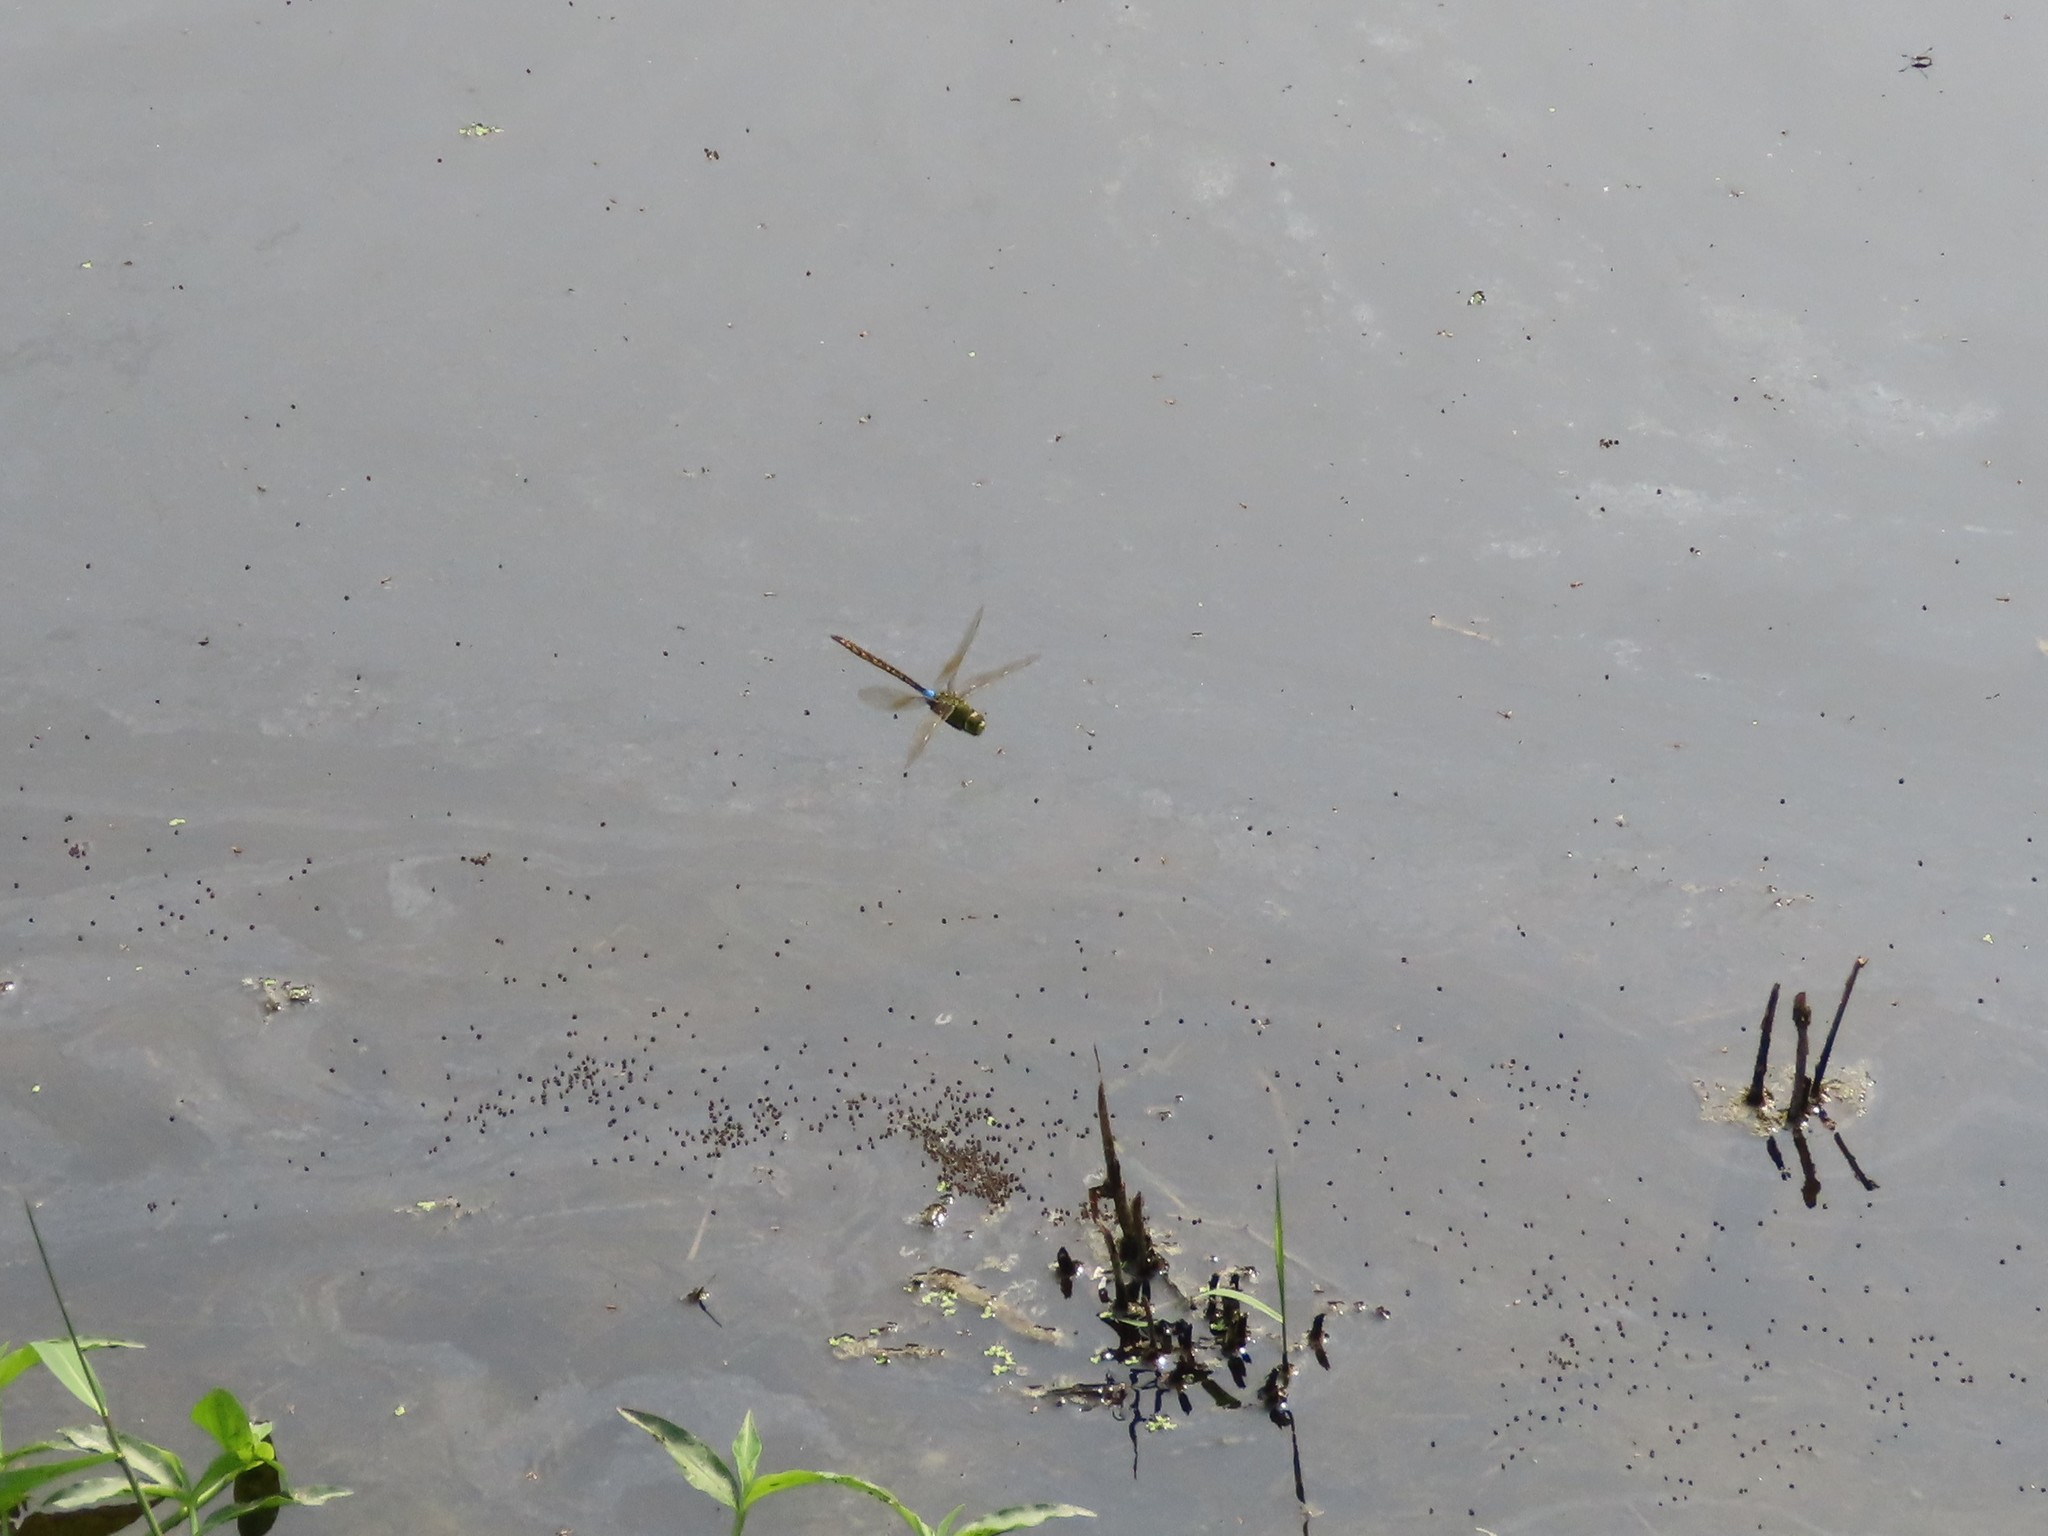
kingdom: Animalia
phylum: Arthropoda
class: Insecta
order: Odonata
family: Aeshnidae
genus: Anax
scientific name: Anax indicus
